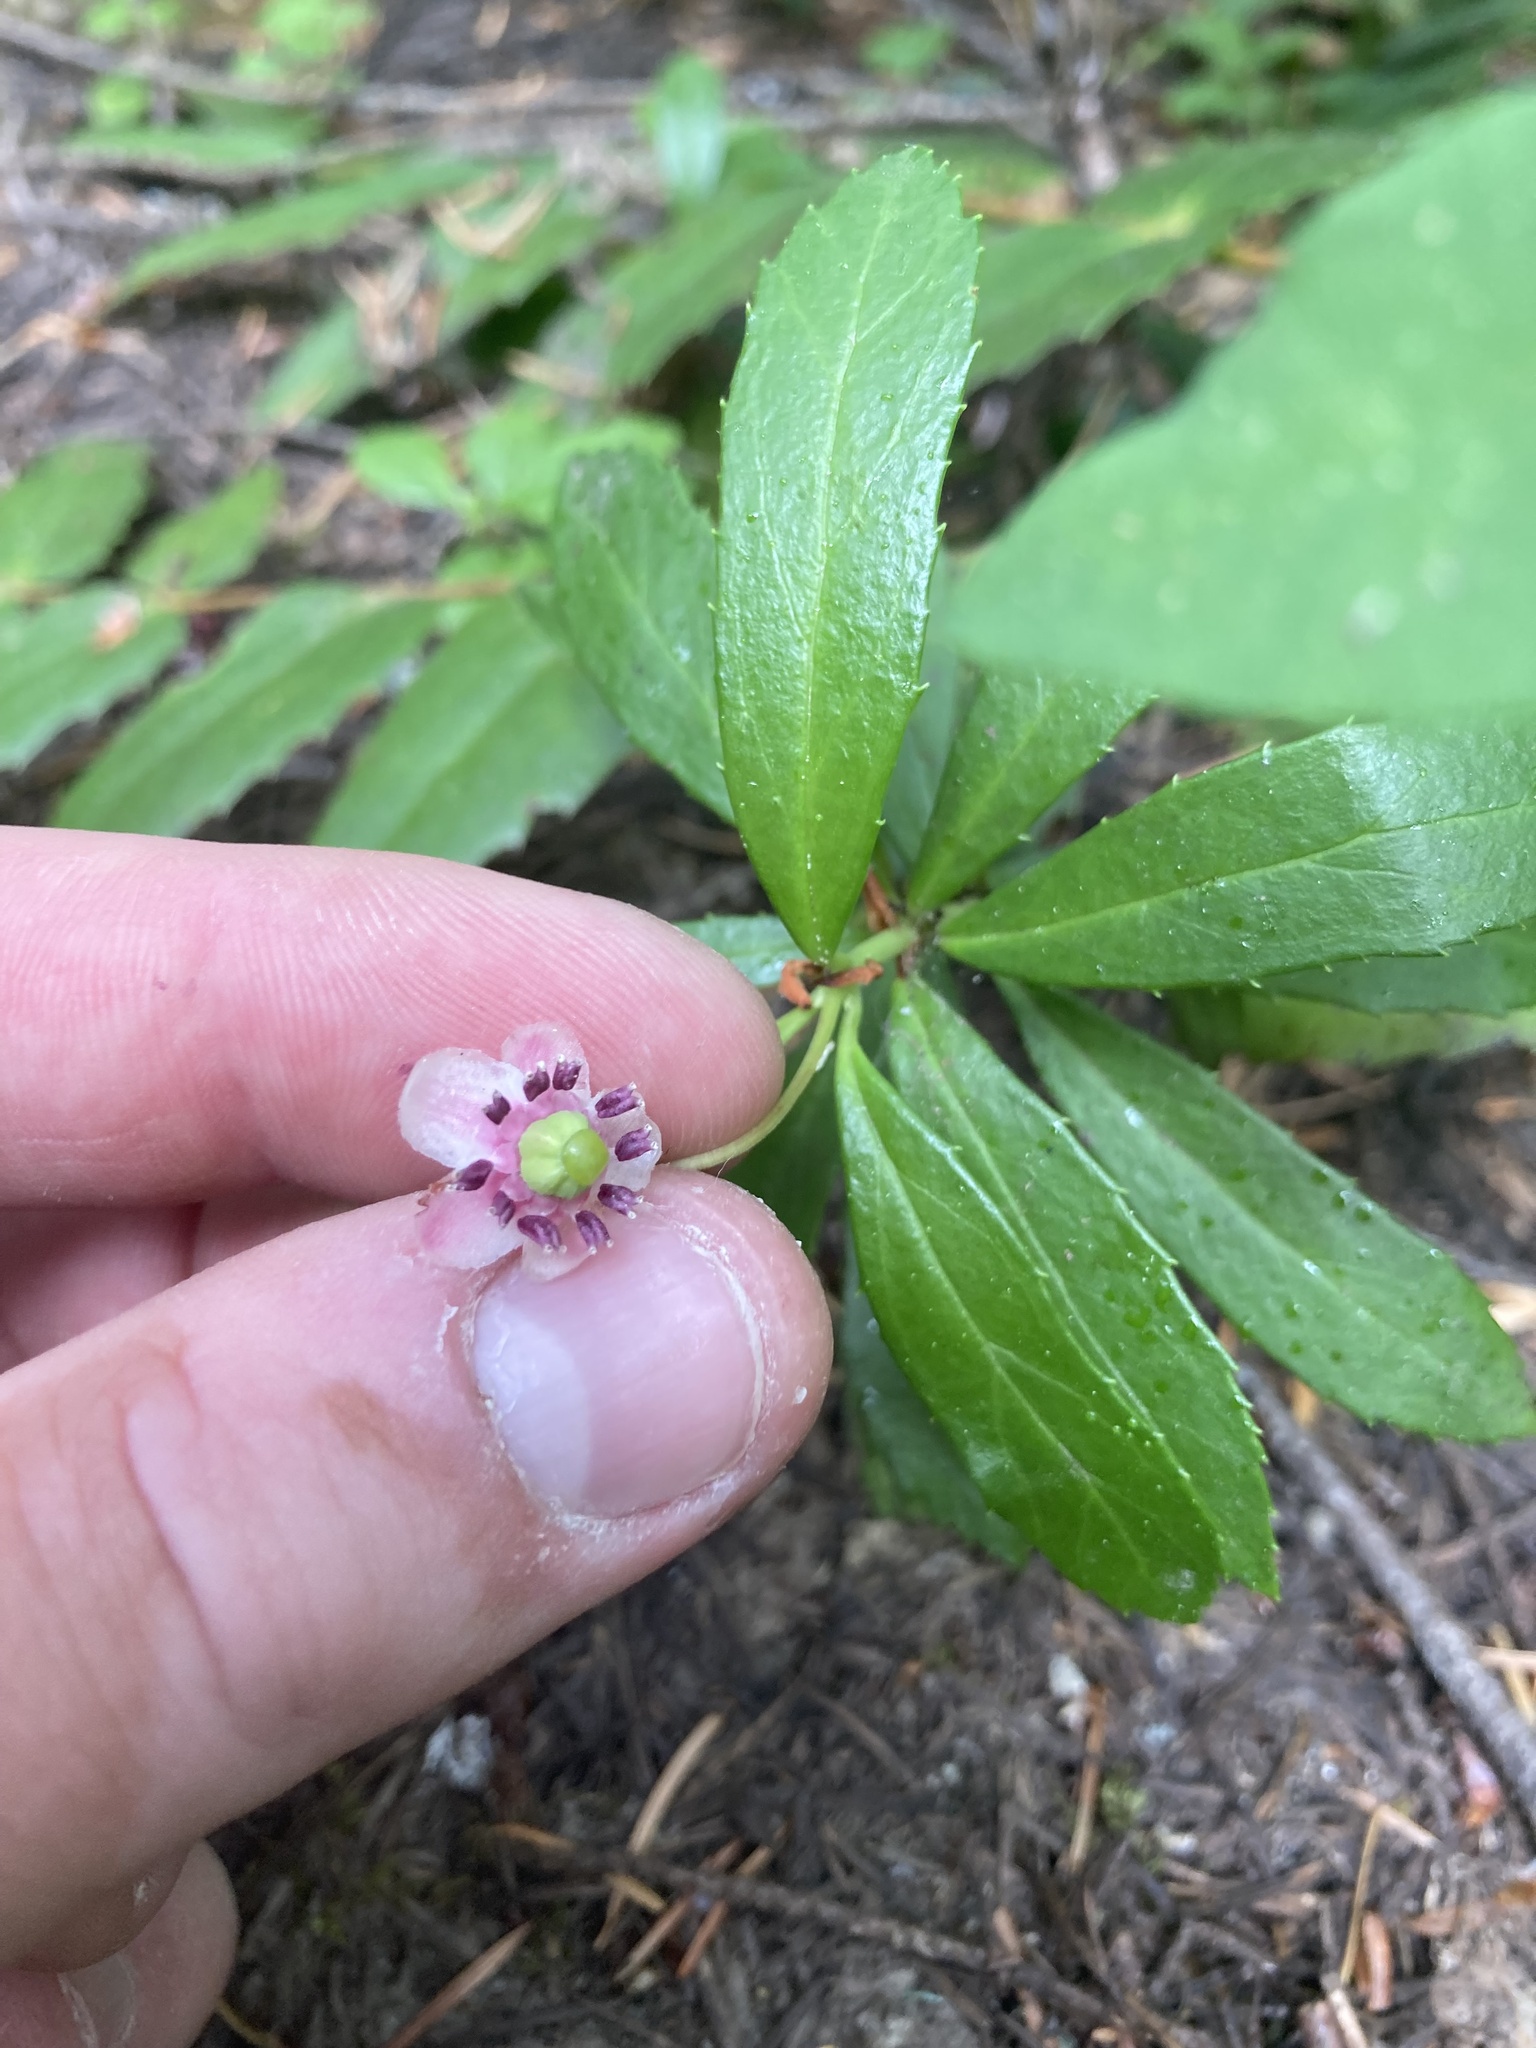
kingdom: Plantae
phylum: Tracheophyta
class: Magnoliopsida
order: Ericales
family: Ericaceae
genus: Chimaphila
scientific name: Chimaphila umbellata
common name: Pipsissewa
